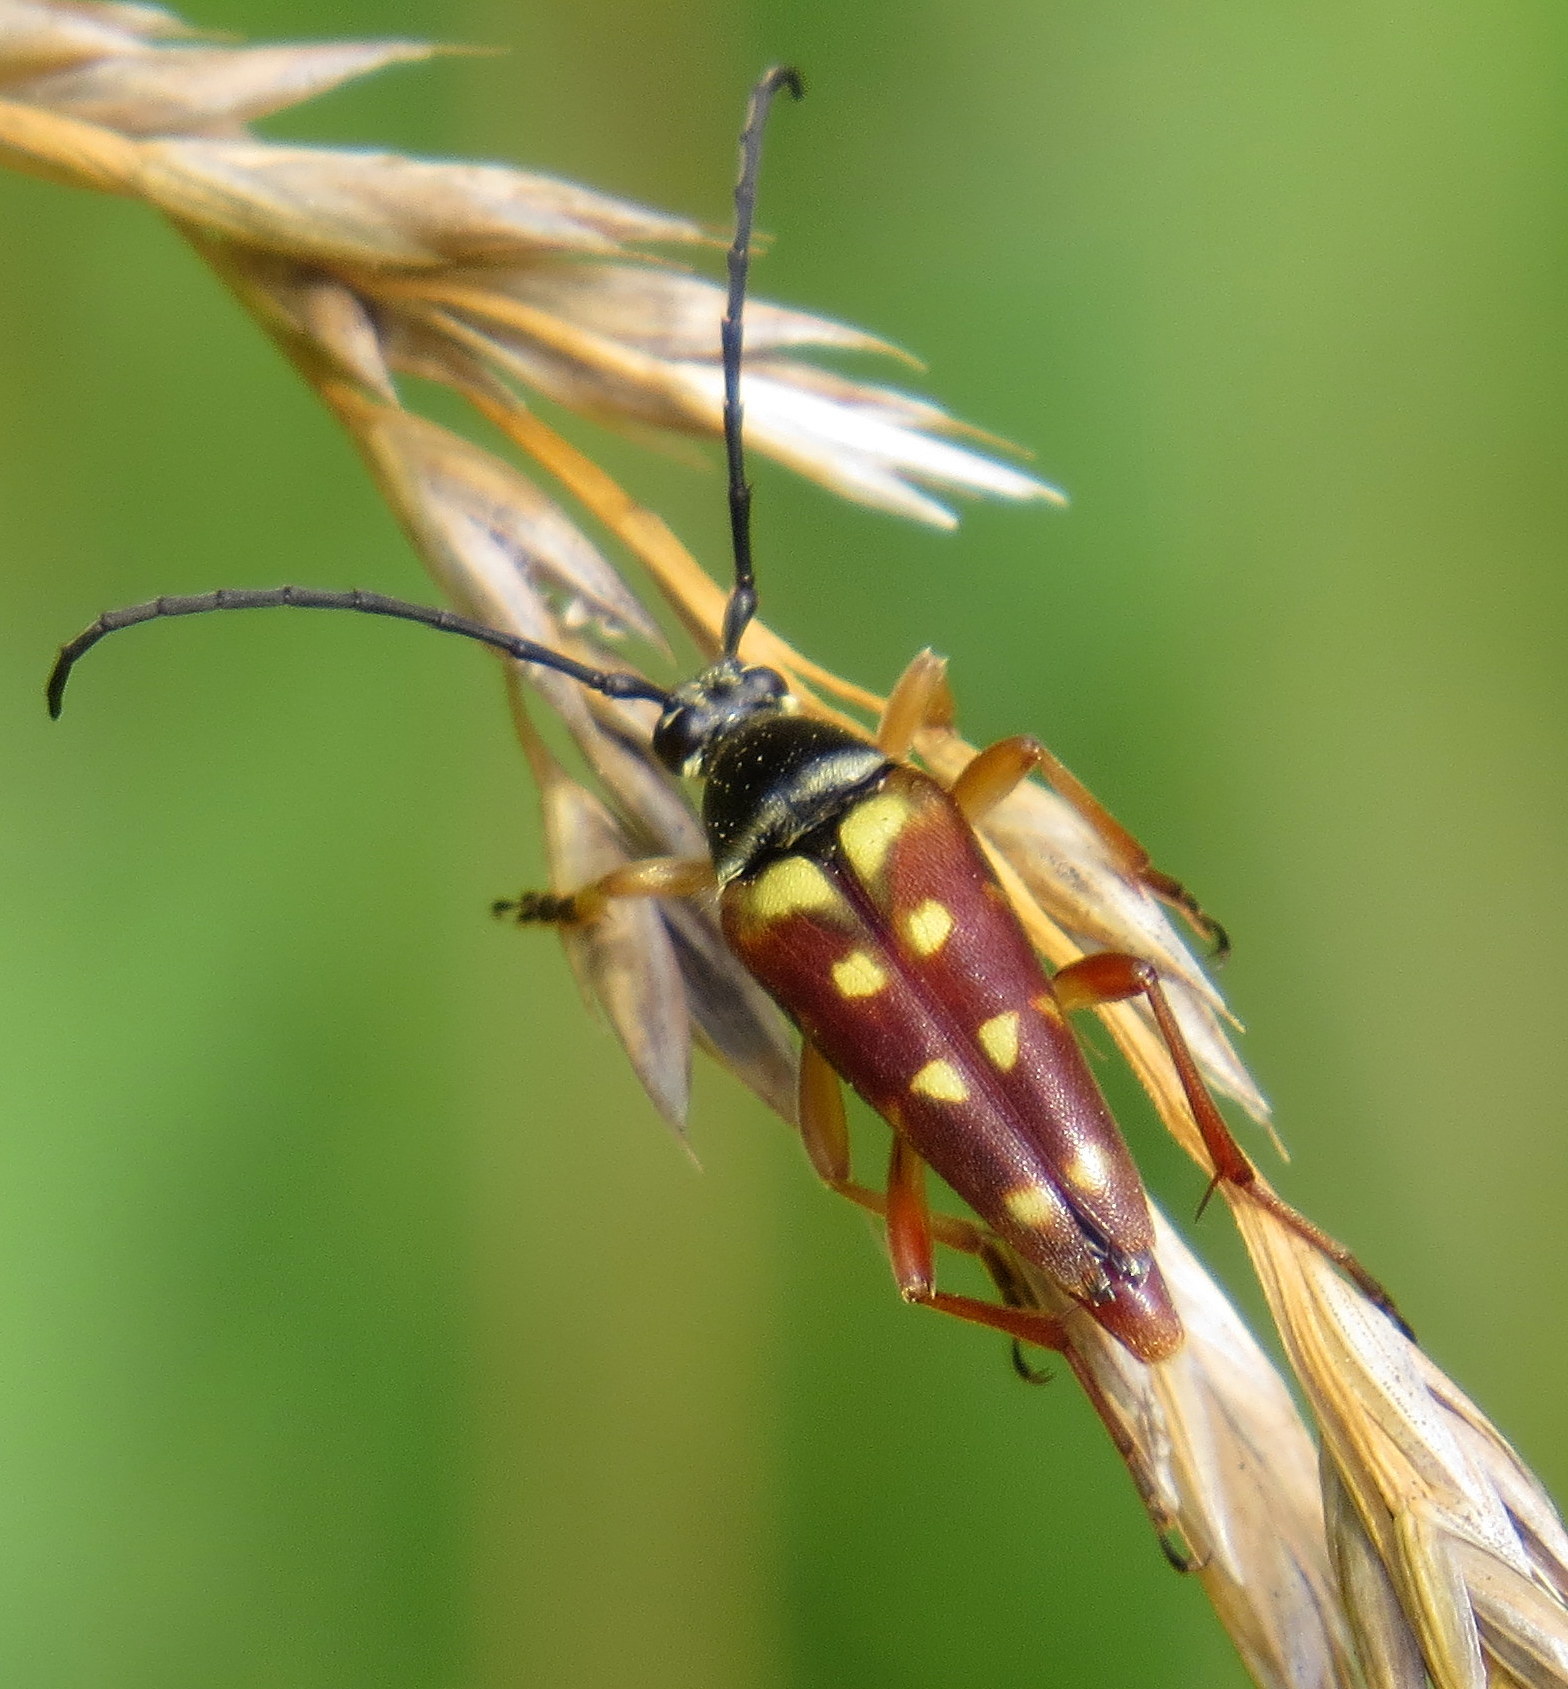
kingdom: Animalia
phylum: Arthropoda
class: Insecta
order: Coleoptera
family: Cerambycidae
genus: Typocerus
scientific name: Typocerus velutinus
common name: Banded longhorn beetle
